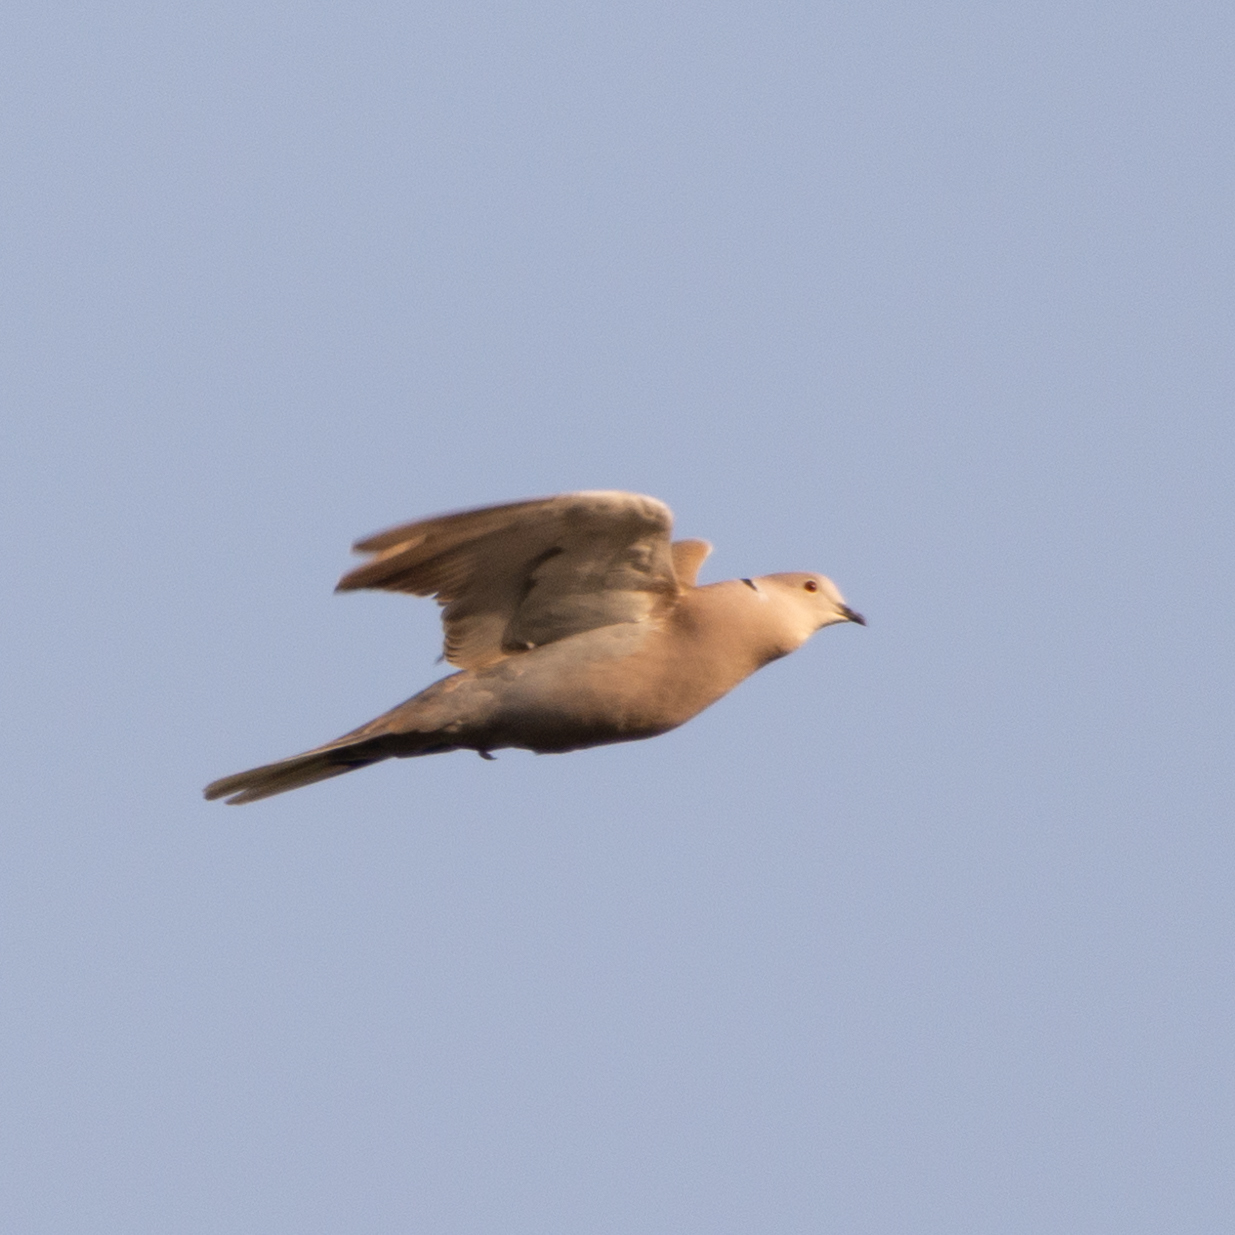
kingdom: Animalia
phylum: Chordata
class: Aves
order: Columbiformes
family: Columbidae
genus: Streptopelia
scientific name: Streptopelia decaocto
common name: Eurasian collared dove
